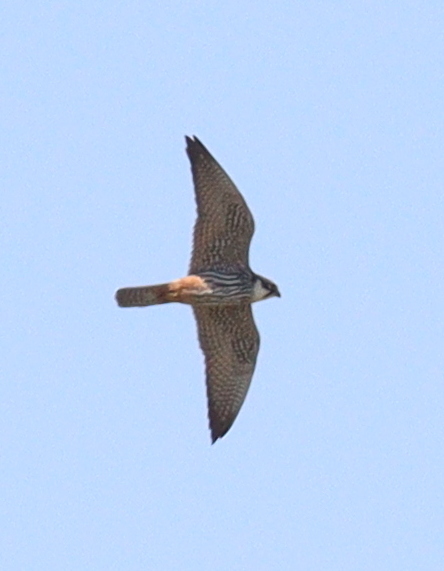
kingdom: Animalia
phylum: Chordata
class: Aves
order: Falconiformes
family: Falconidae
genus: Falco
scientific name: Falco subbuteo
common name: Eurasian hobby
